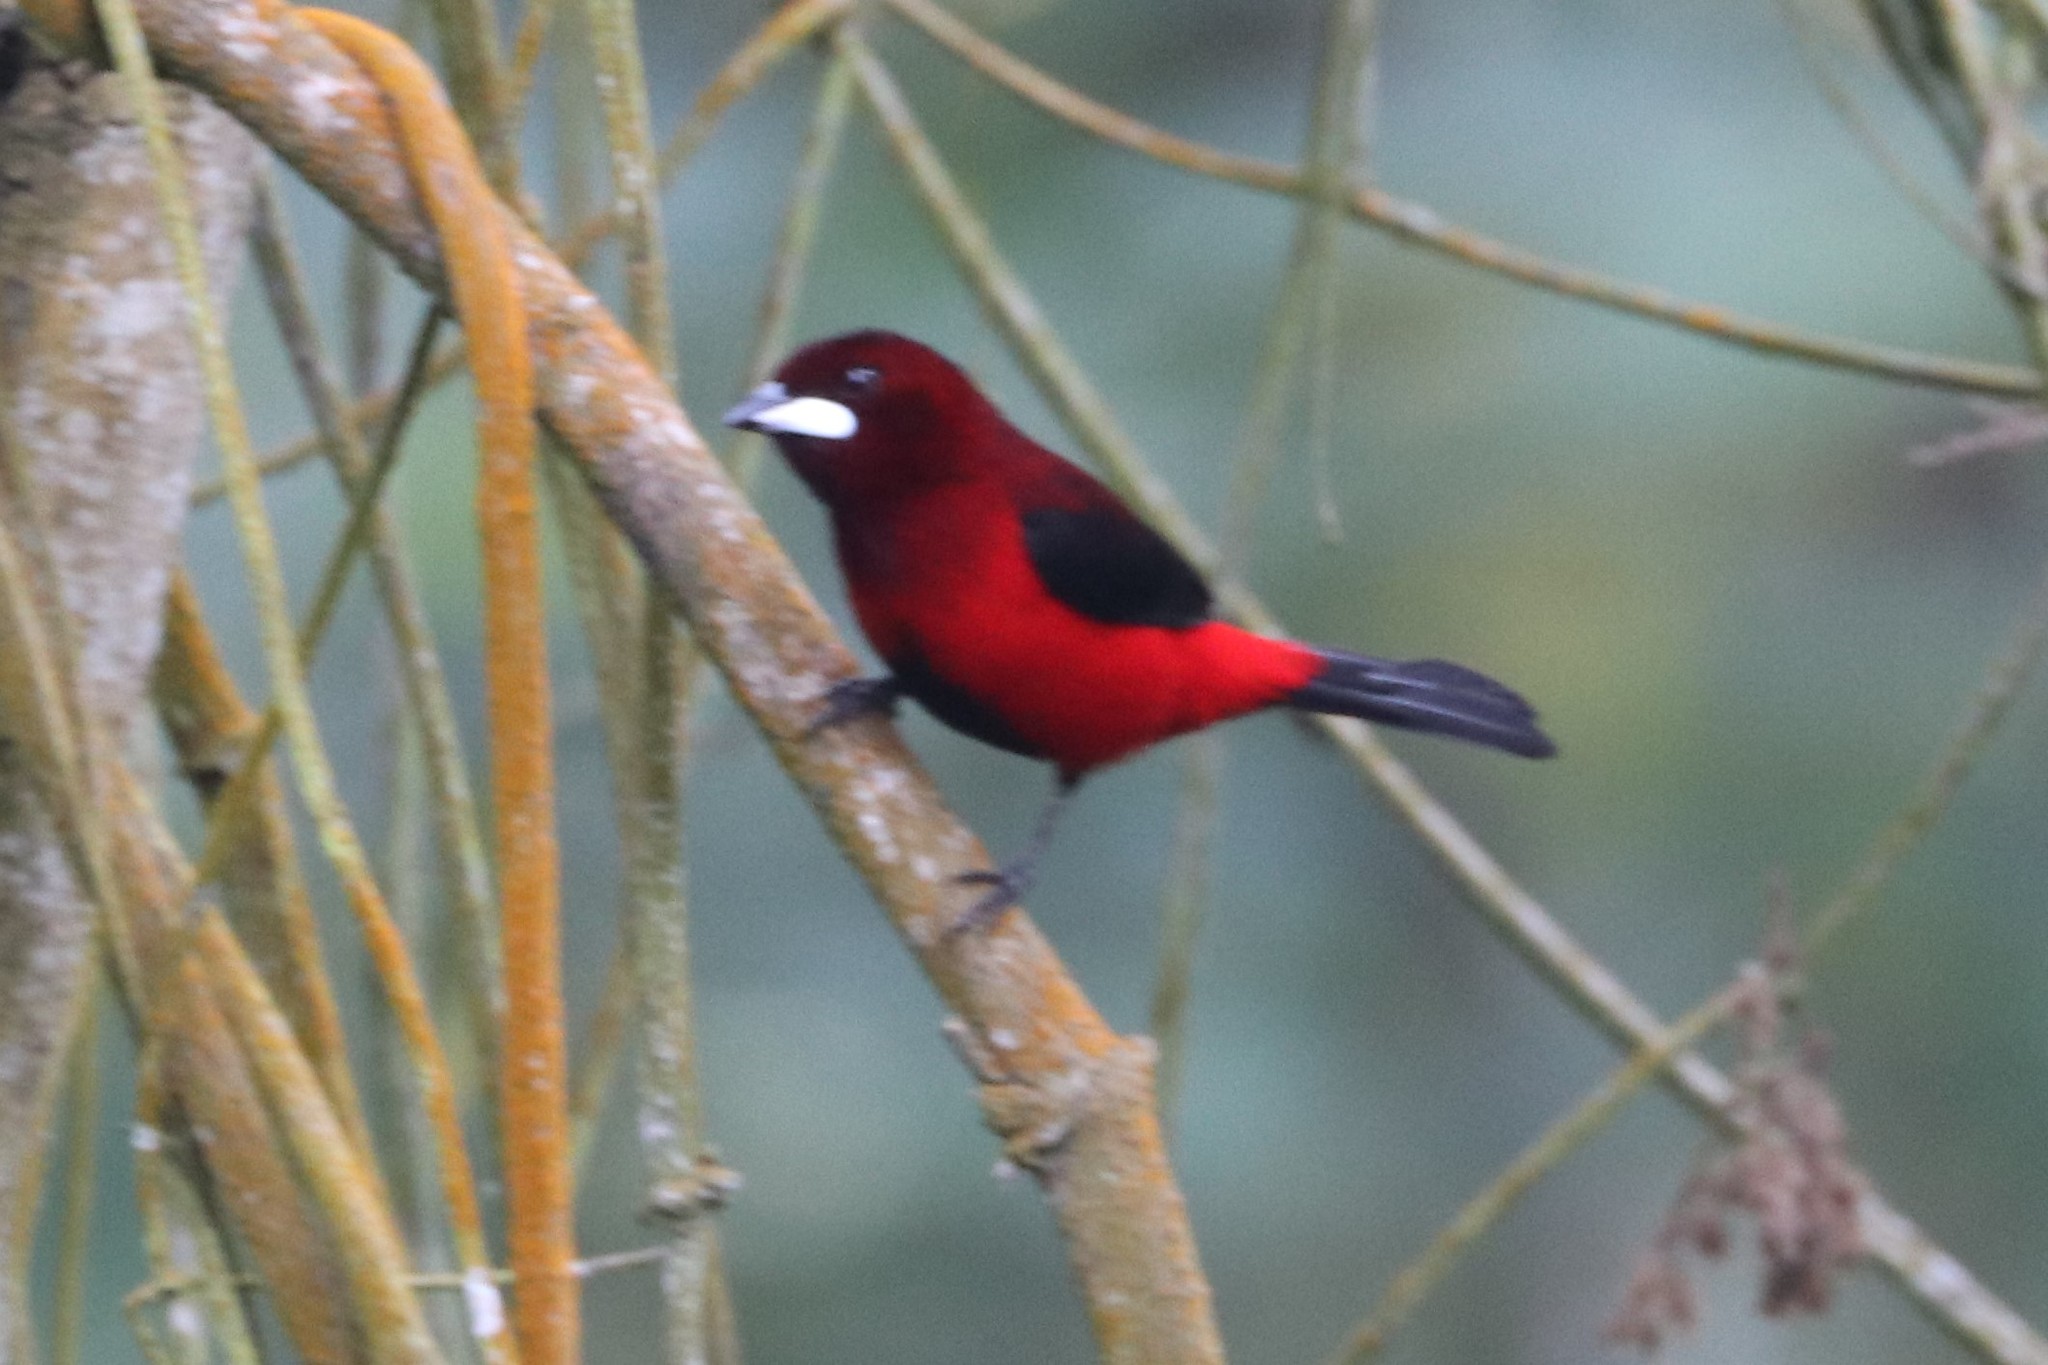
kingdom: Animalia
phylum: Chordata
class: Aves
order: Passeriformes
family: Thraupidae
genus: Ramphocelus
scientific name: Ramphocelus dimidiatus
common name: Crimson-backed tanager
